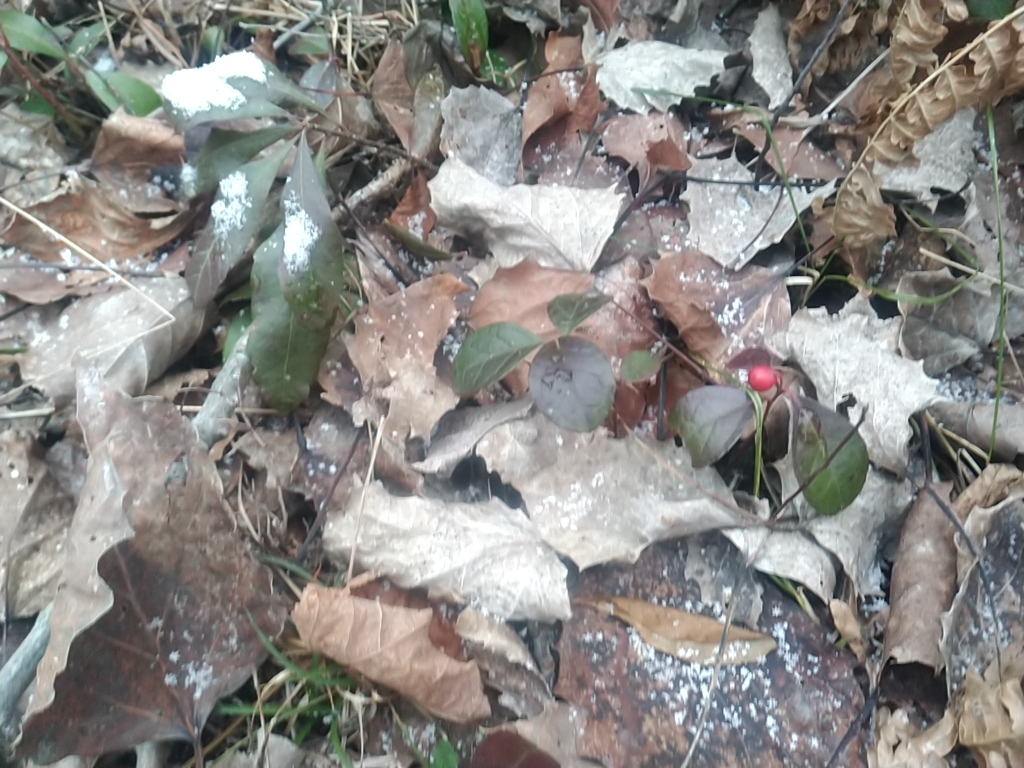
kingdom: Plantae
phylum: Tracheophyta
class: Magnoliopsida
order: Ericales
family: Ericaceae
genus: Gaultheria
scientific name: Gaultheria procumbens
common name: Checkerberry
